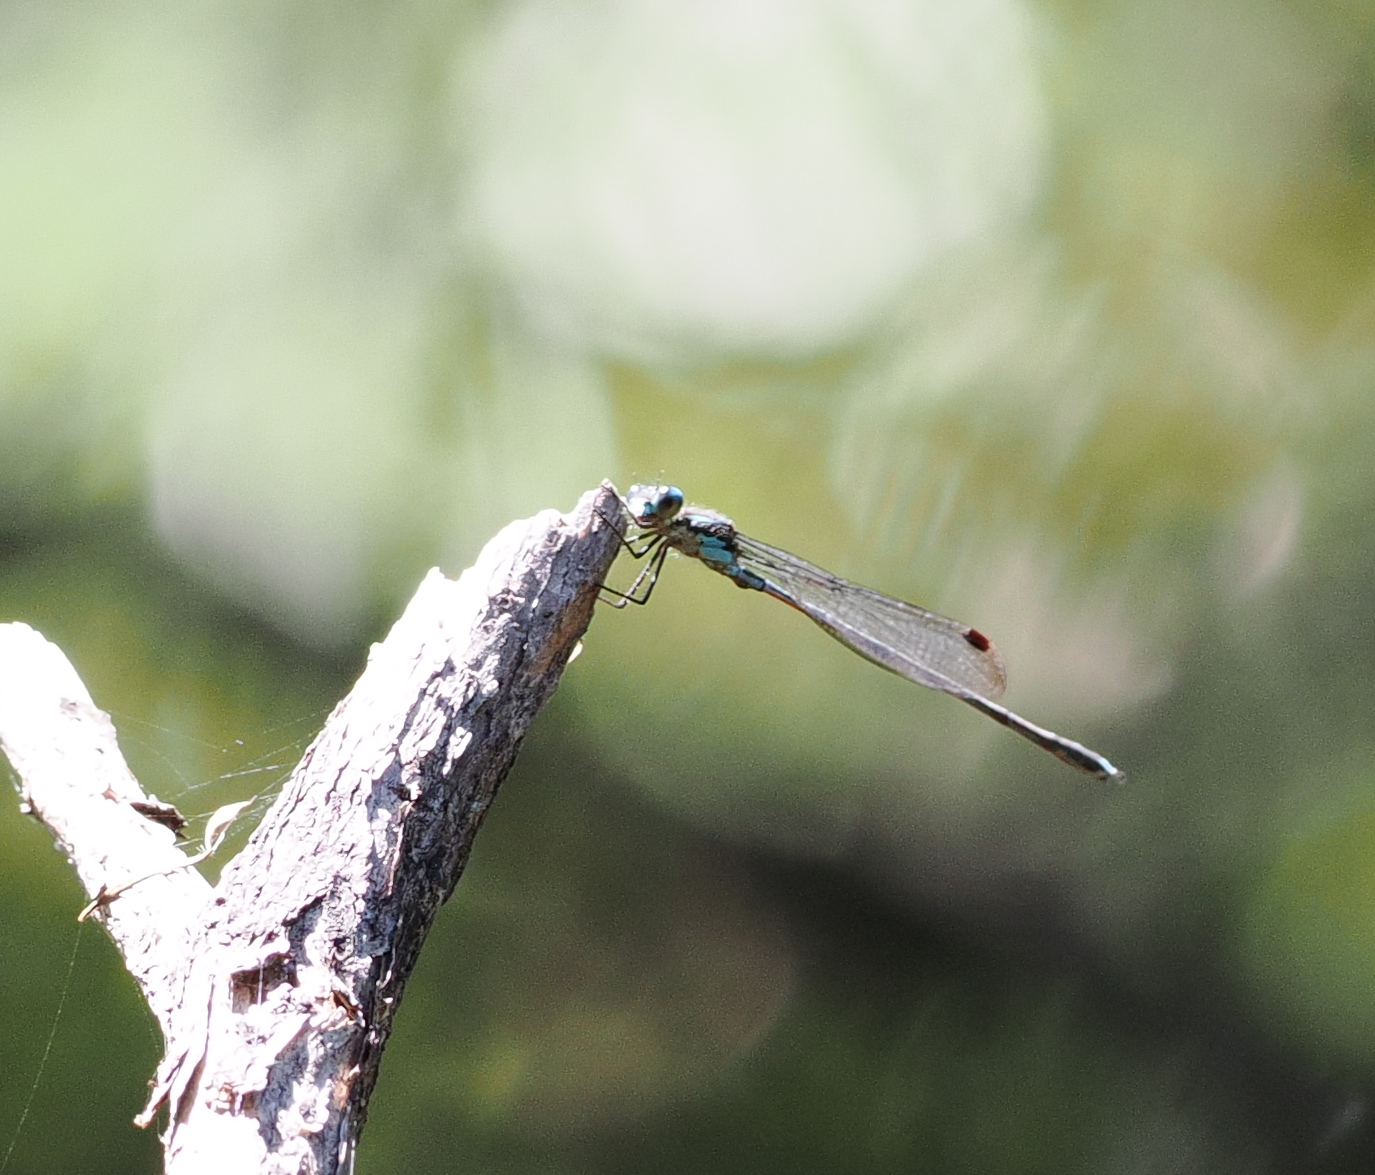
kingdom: Animalia
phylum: Arthropoda
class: Insecta
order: Odonata
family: Lestidae
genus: Austrolestes
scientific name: Austrolestes colensonis
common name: Blue damselfly
